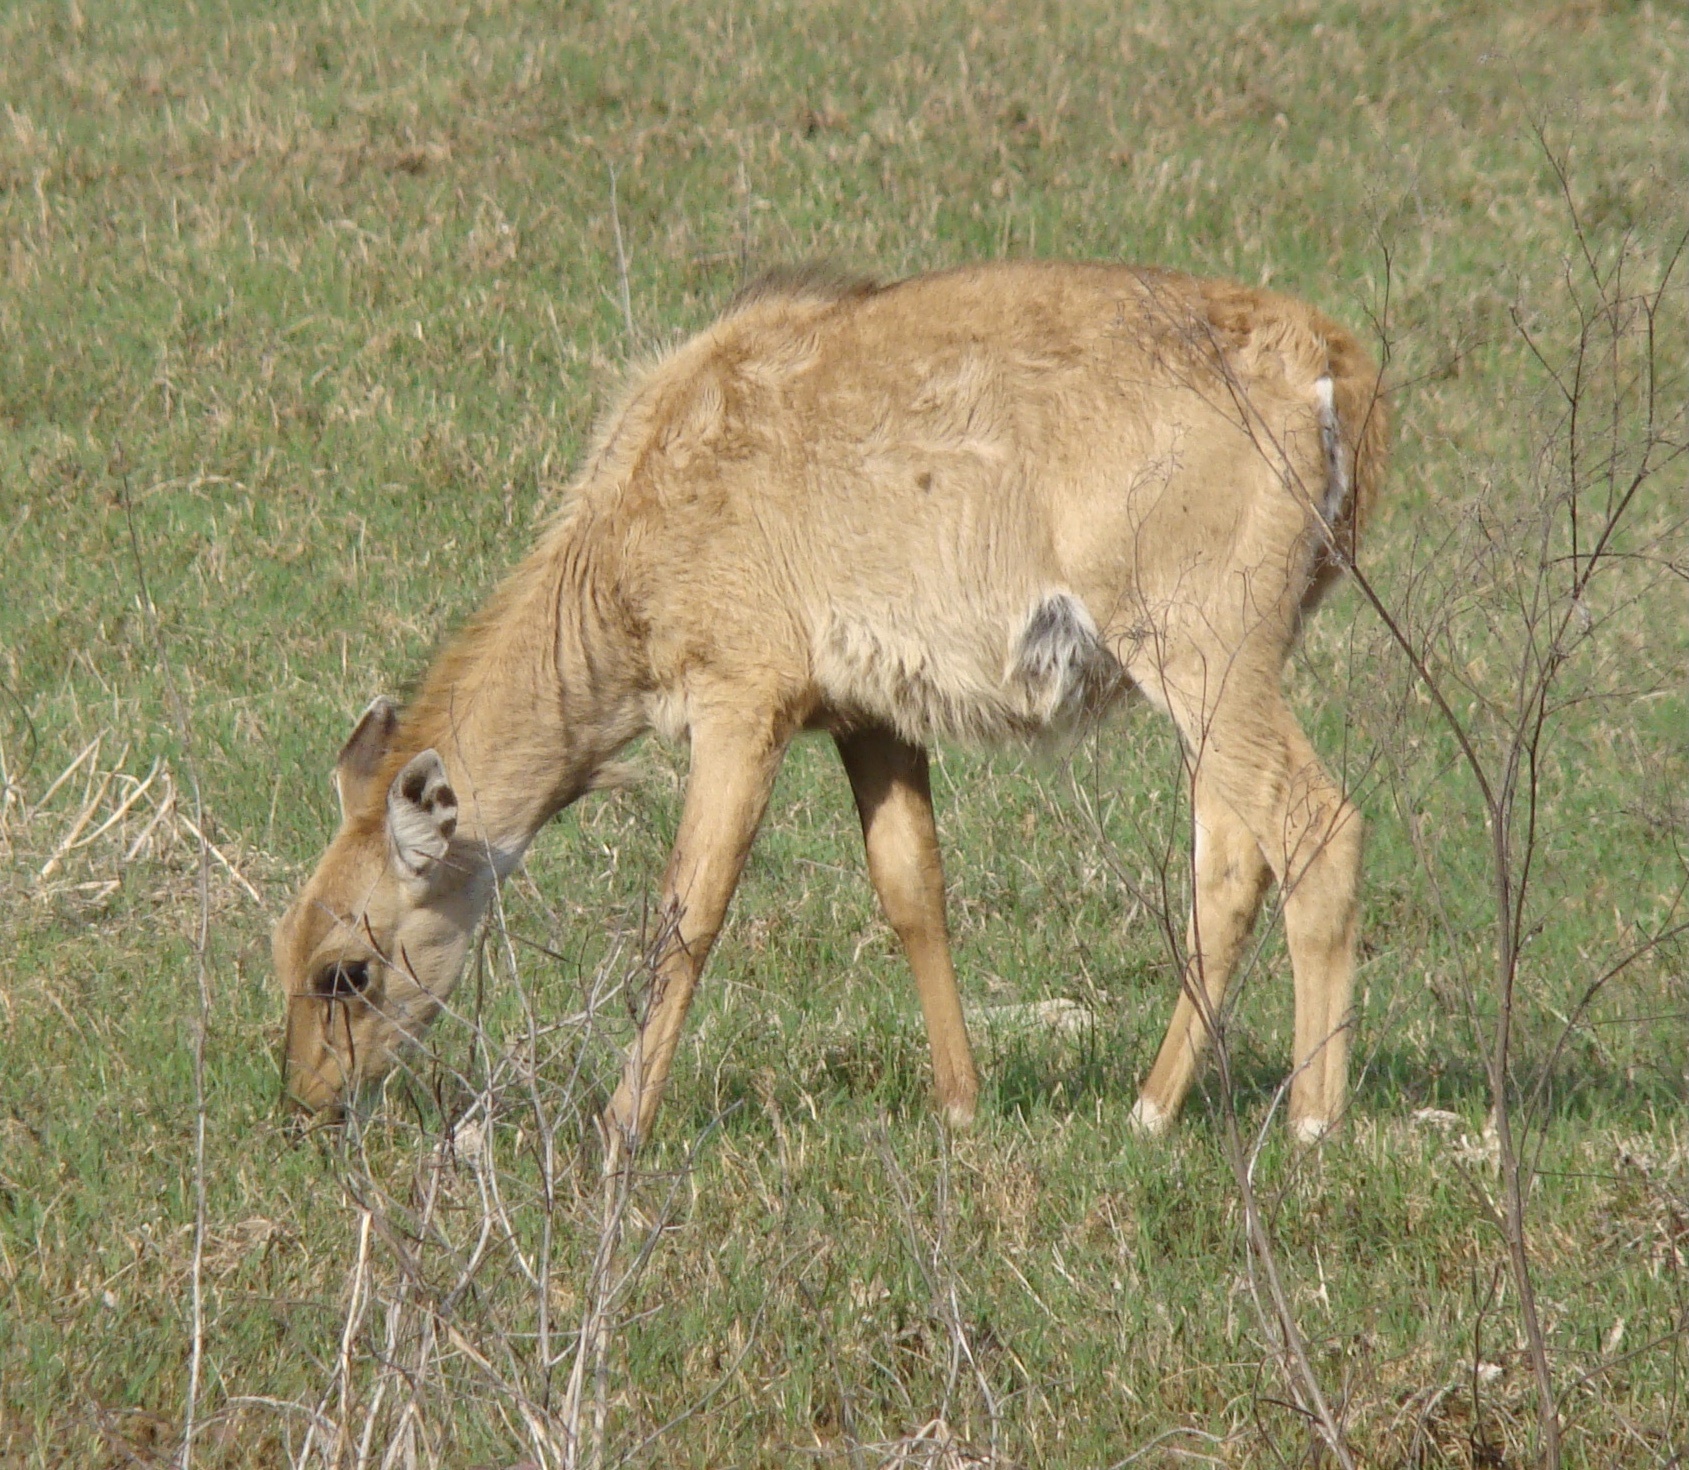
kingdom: Animalia
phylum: Chordata
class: Mammalia
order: Artiodactyla
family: Bovidae
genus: Boselaphus
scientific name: Boselaphus tragocamelus
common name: Nilgai
